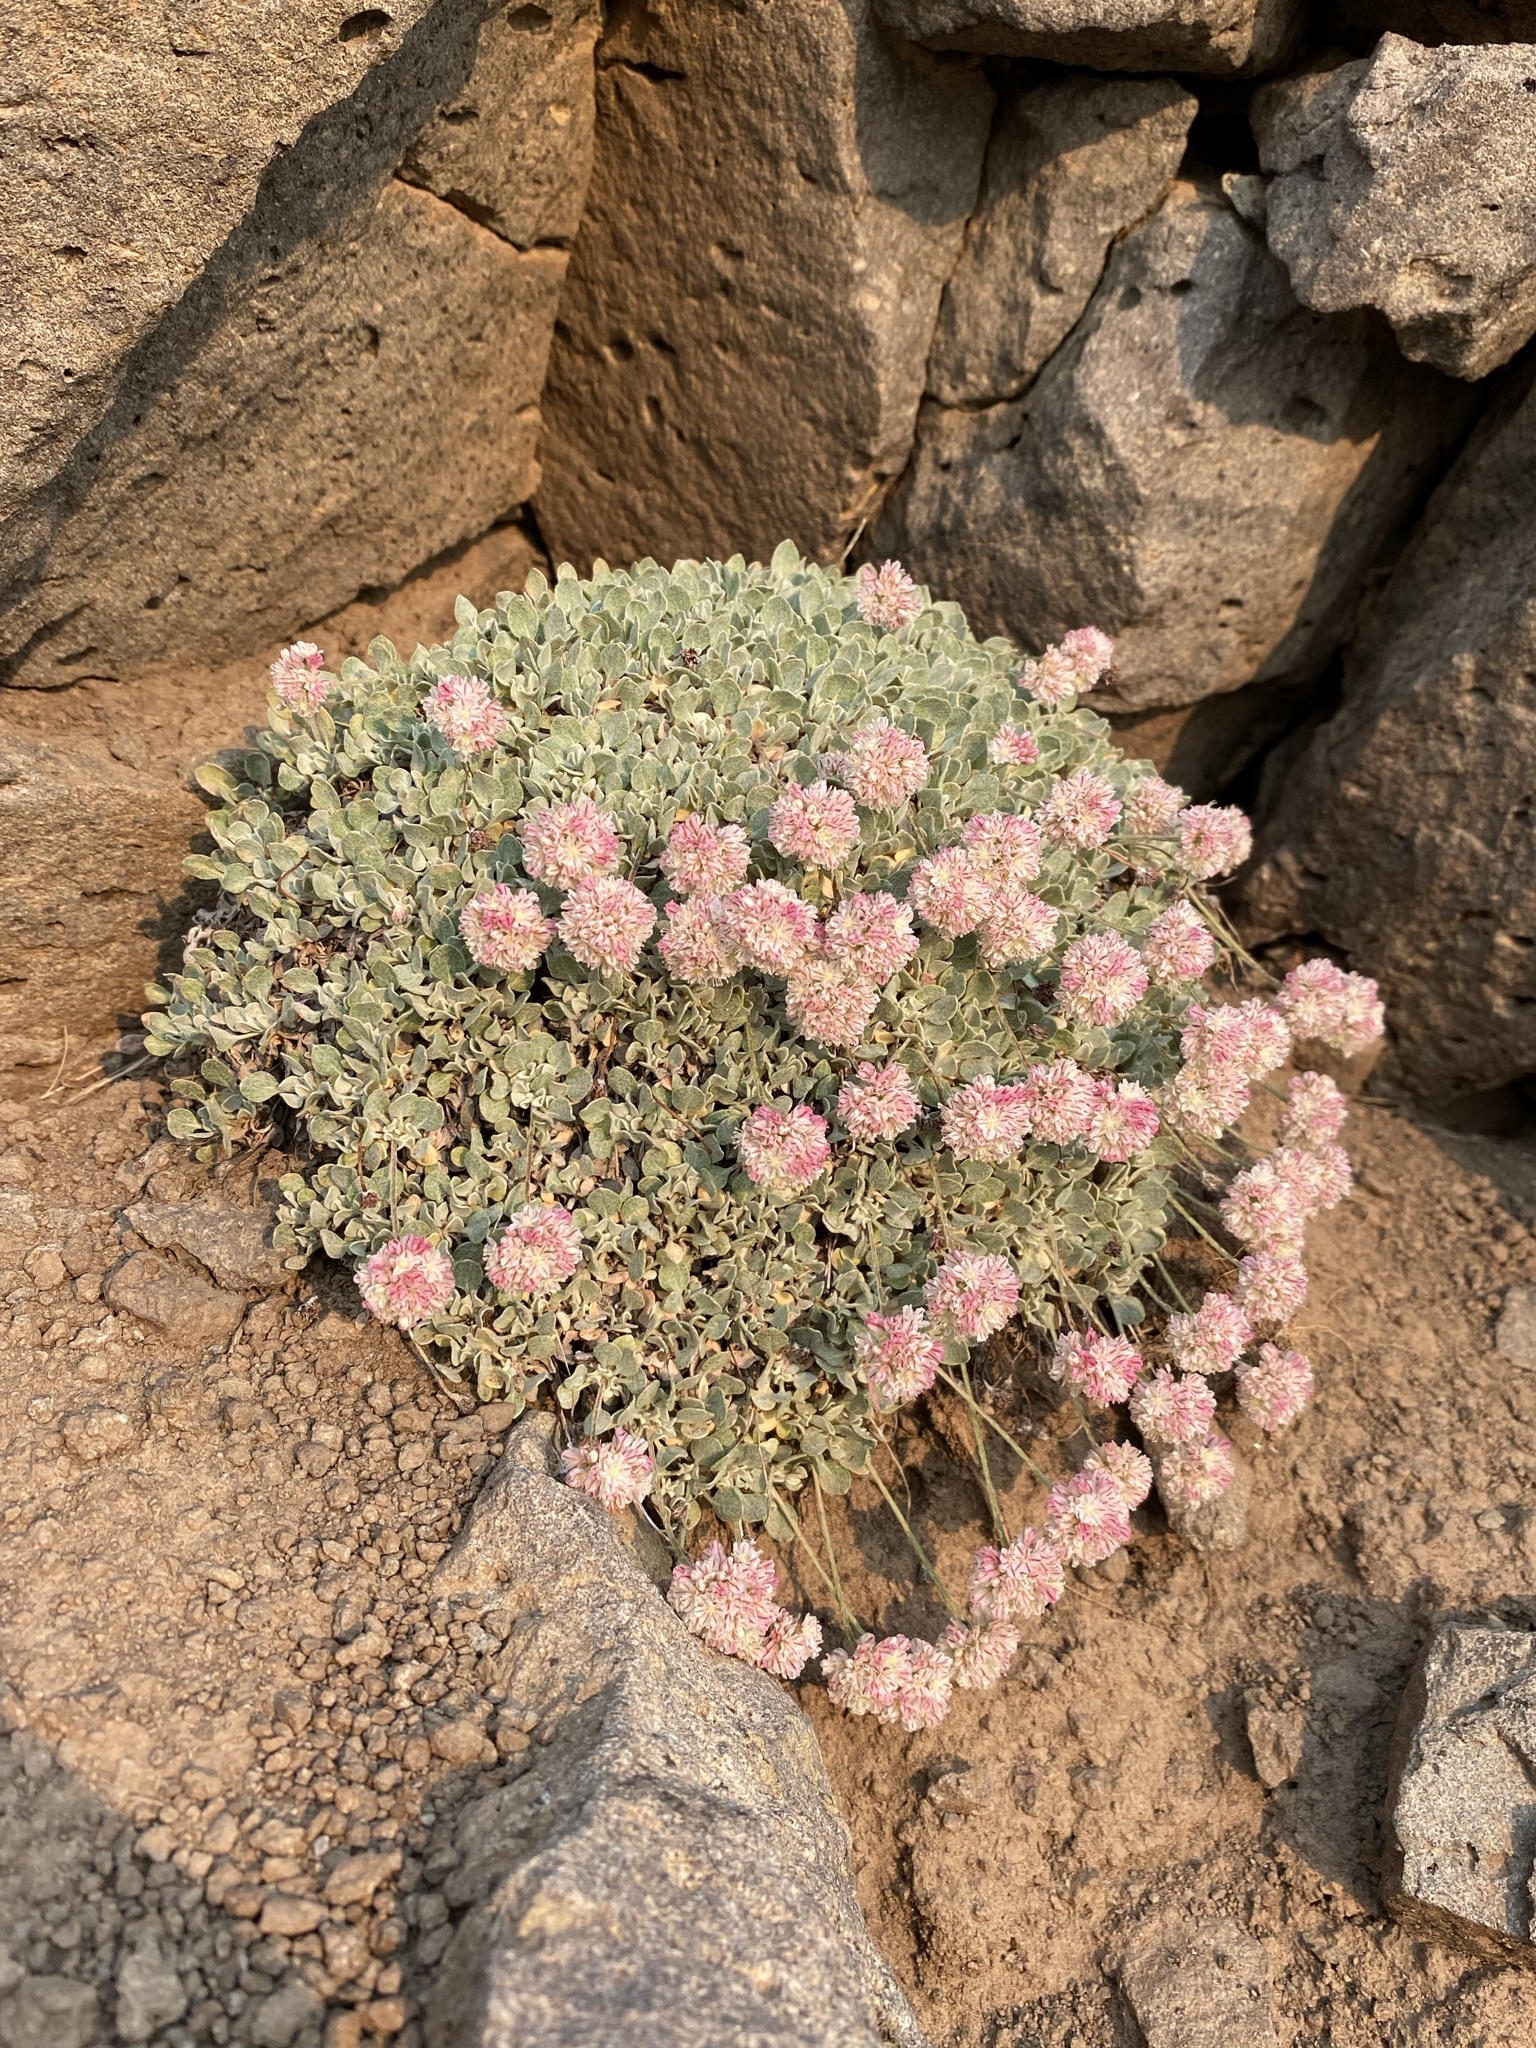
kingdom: Plantae
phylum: Tracheophyta
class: Magnoliopsida
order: Caryophyllales
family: Polygonaceae
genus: Eriogonum
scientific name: Eriogonum ovalifolium
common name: Cushion buckwheat
